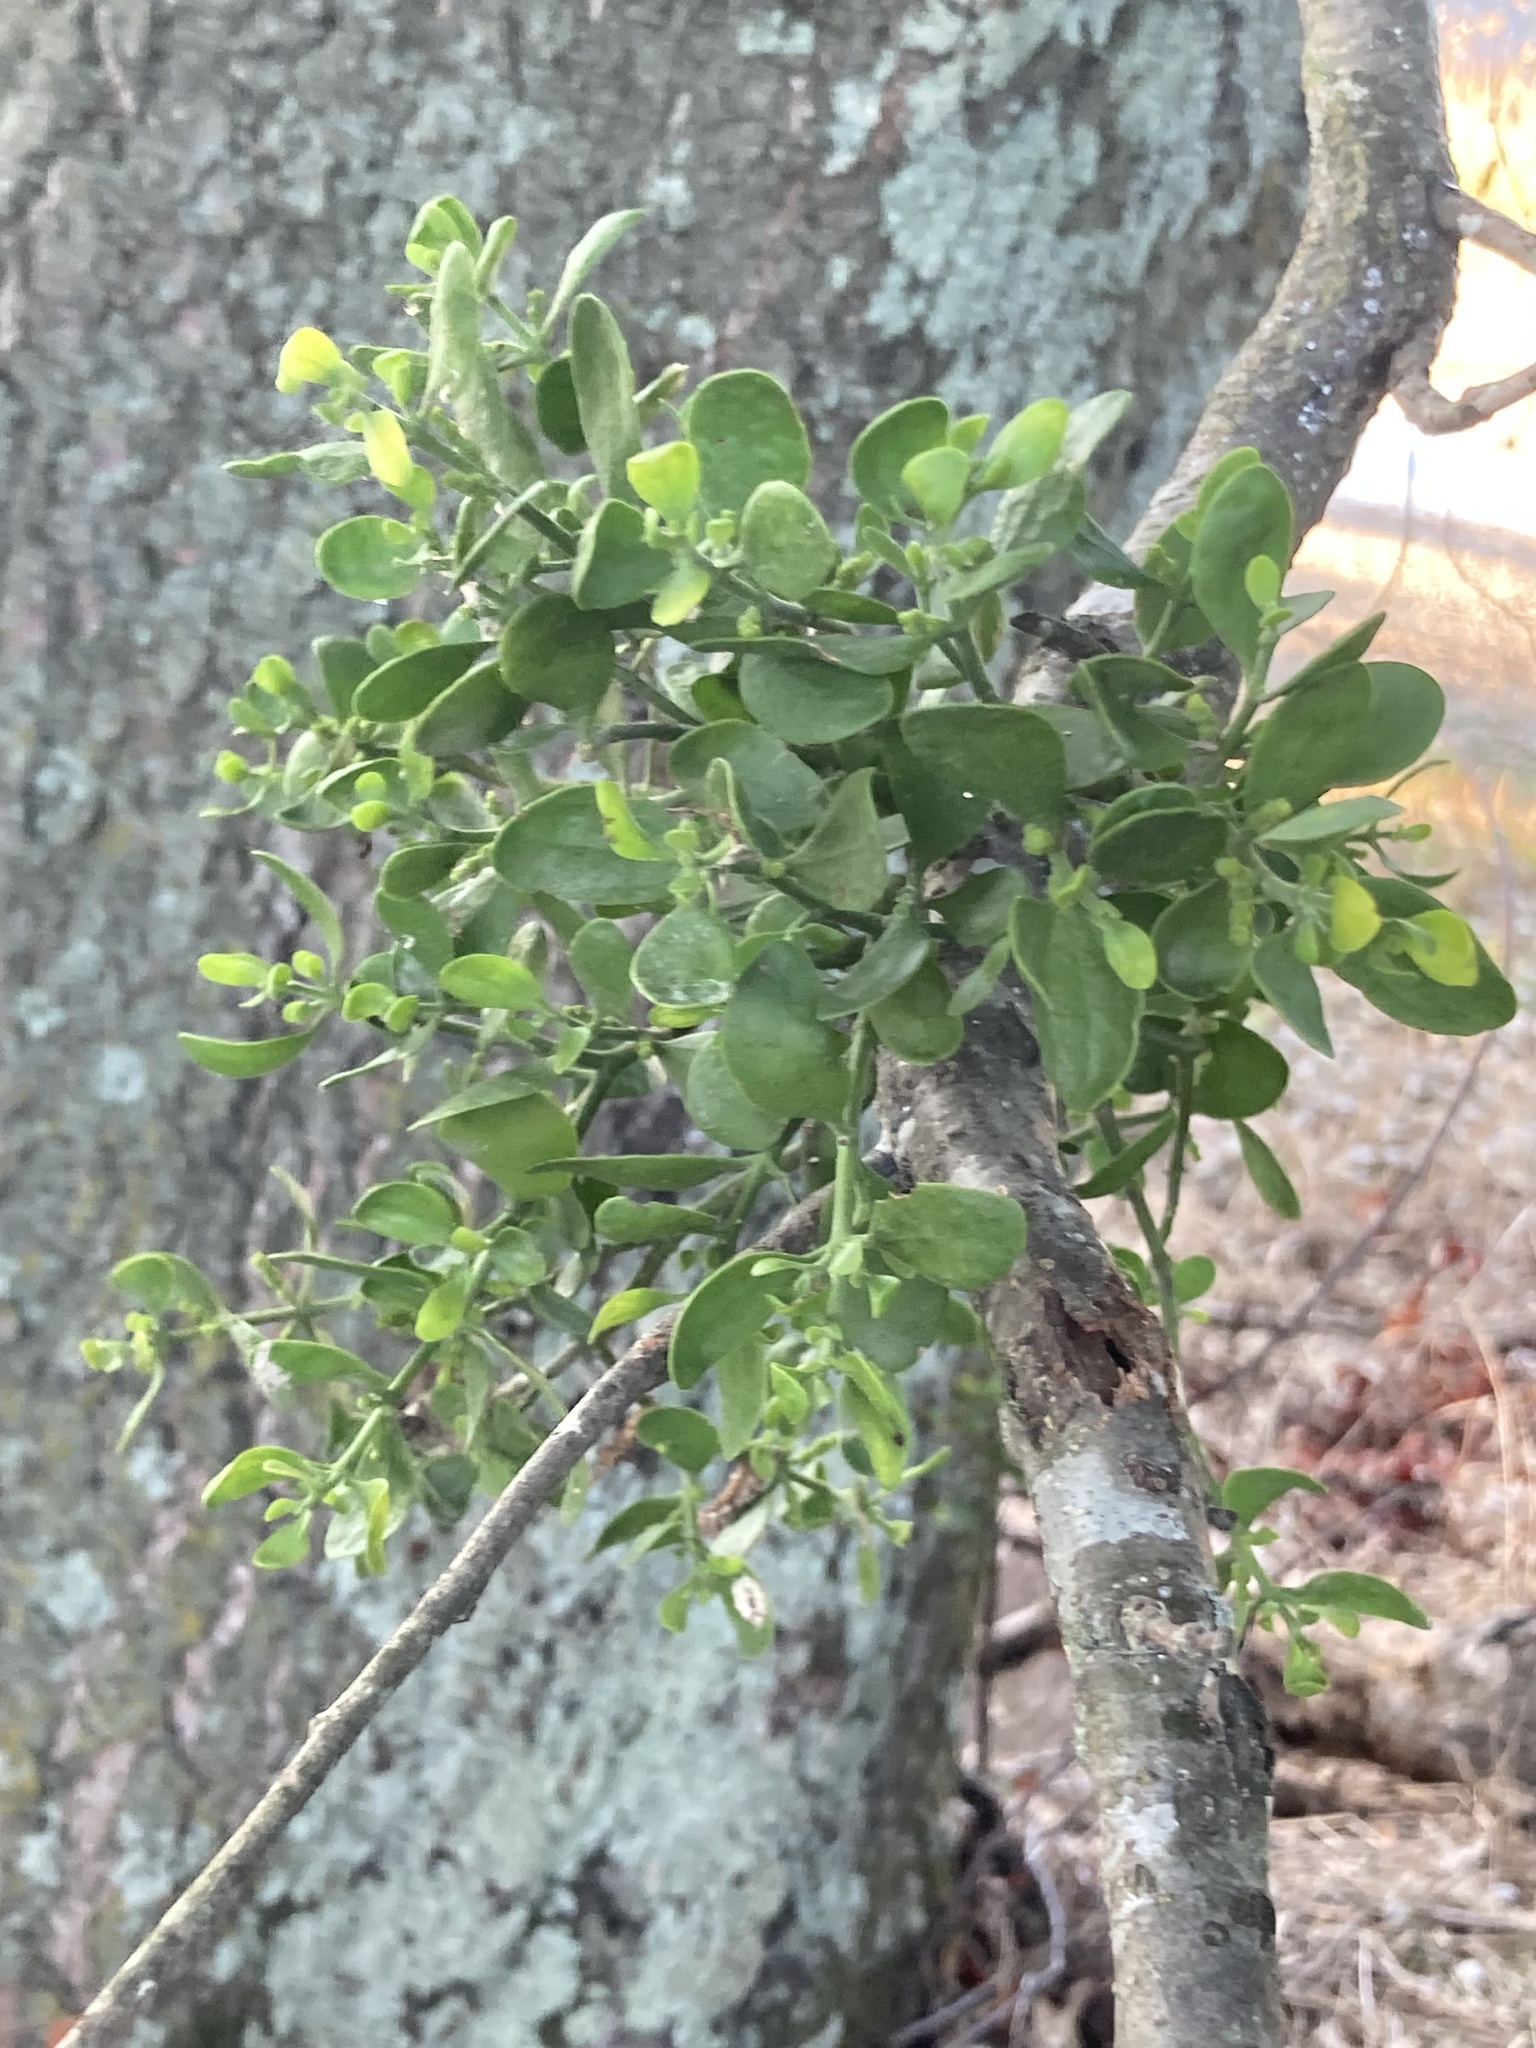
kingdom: Plantae
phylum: Tracheophyta
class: Magnoliopsida
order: Santalales
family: Viscaceae
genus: Phoradendron
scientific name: Phoradendron leucarpum
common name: Pacific mistletoe
